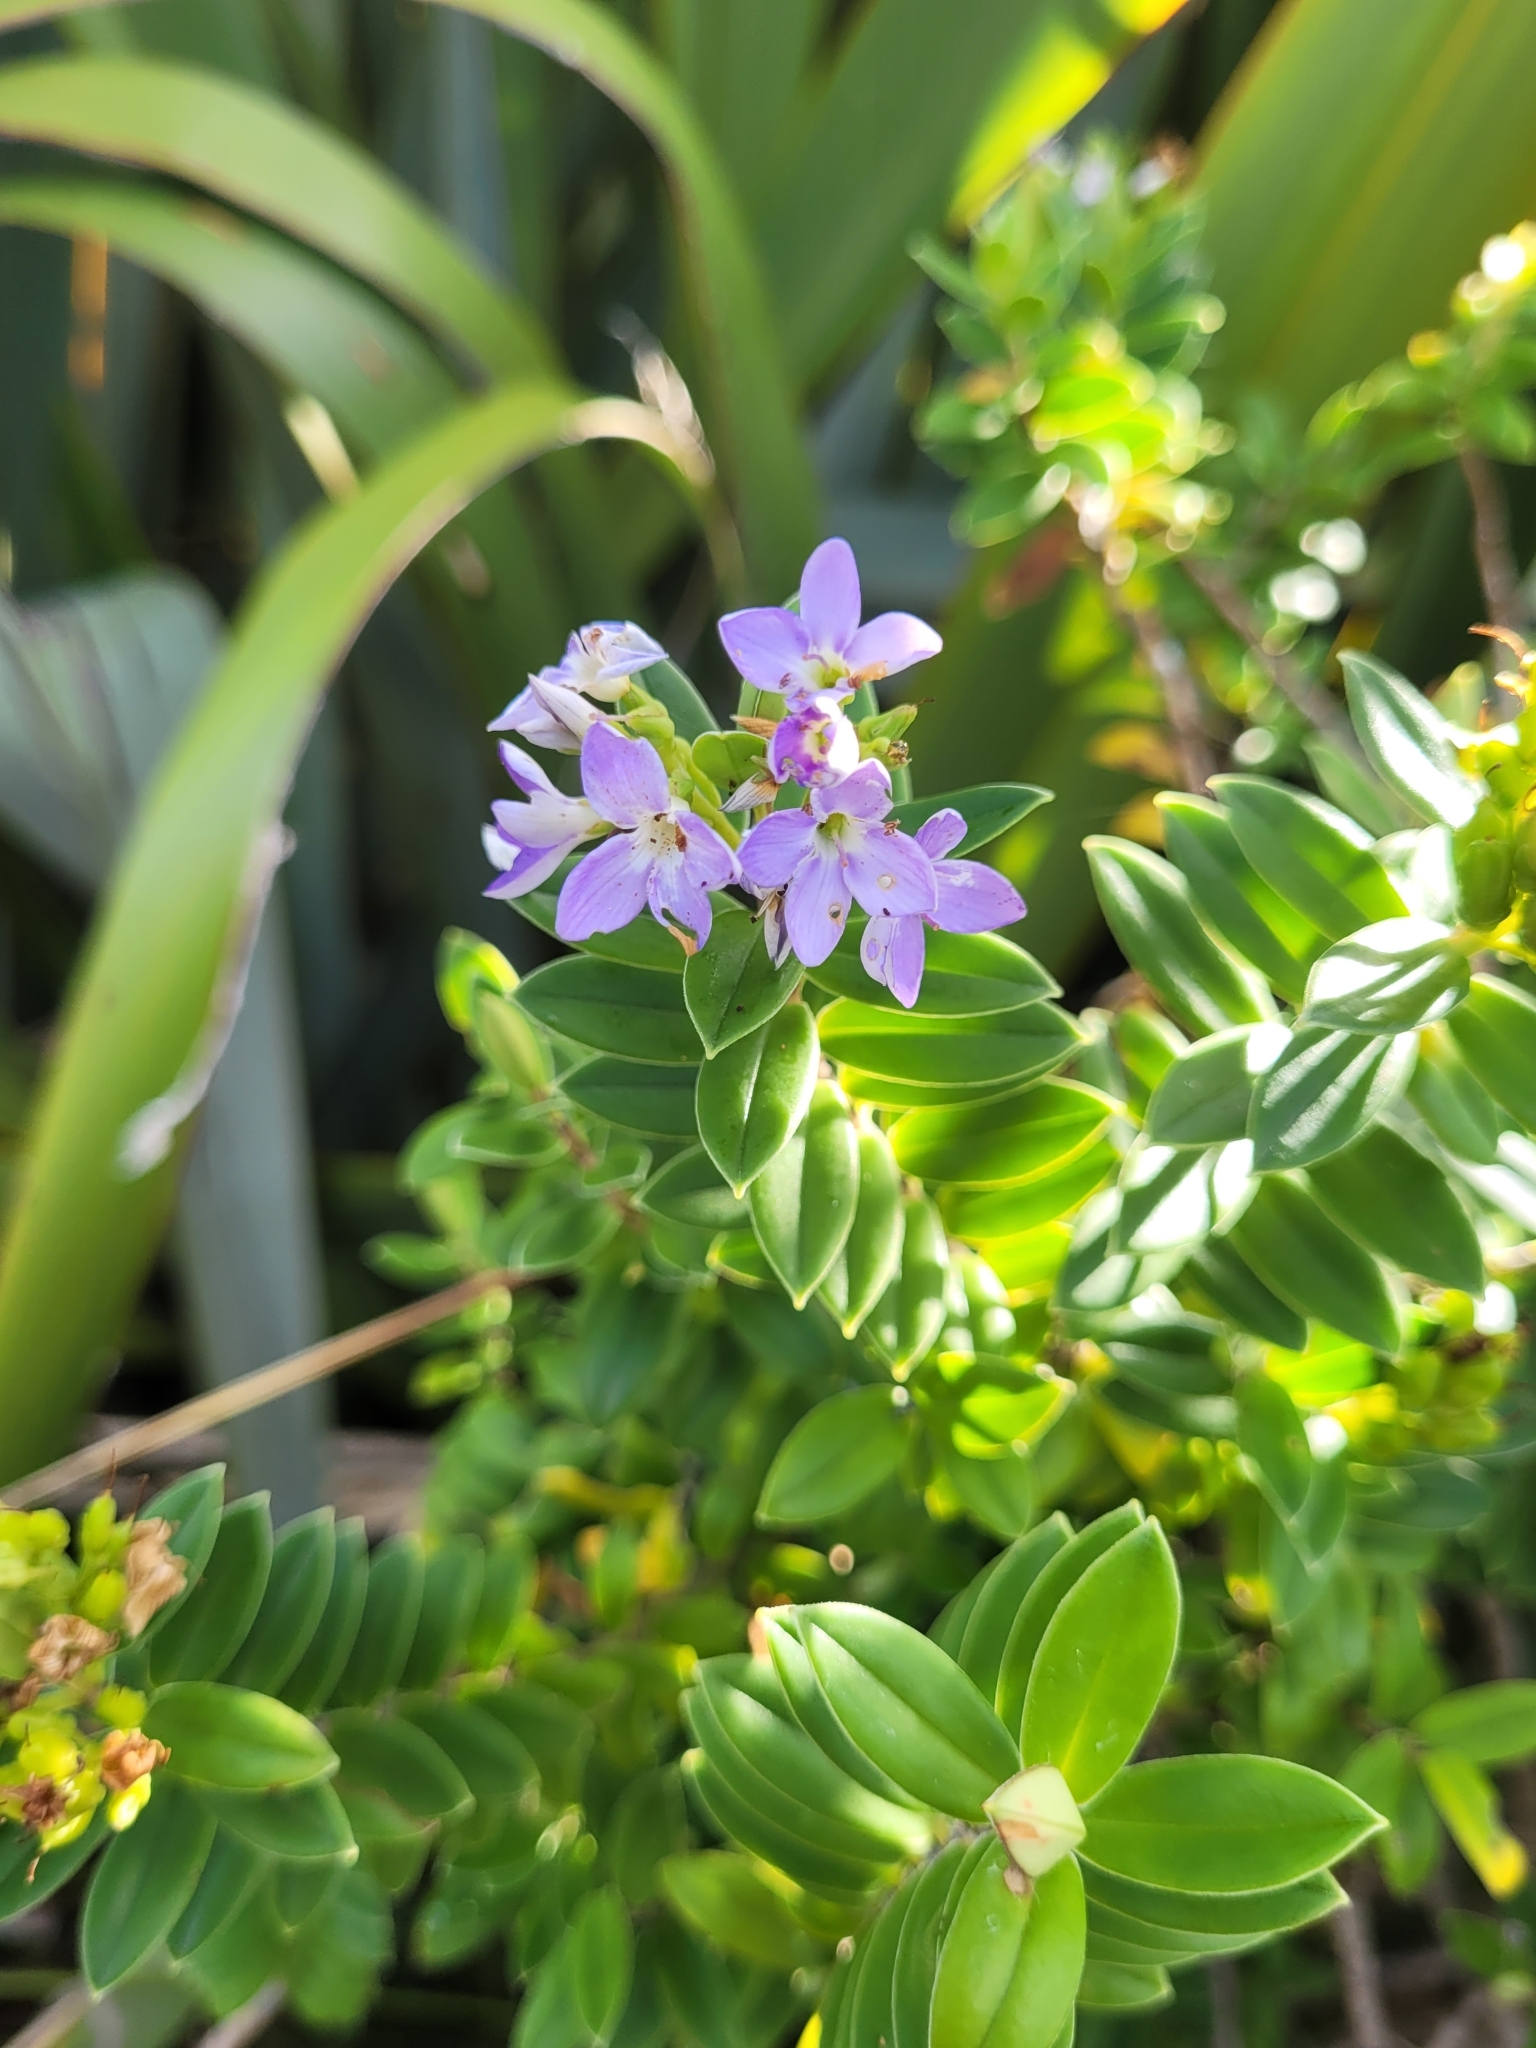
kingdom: Plantae
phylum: Tracheophyta
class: Magnoliopsida
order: Lamiales
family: Plantaginaceae
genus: Veronica
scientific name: Veronica elliptica
